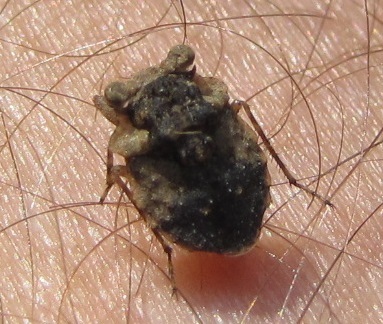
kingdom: Animalia
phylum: Arthropoda
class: Insecta
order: Hemiptera
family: Gelastocoridae
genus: Gelastocoris
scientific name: Gelastocoris oculatus
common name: Toad bug
